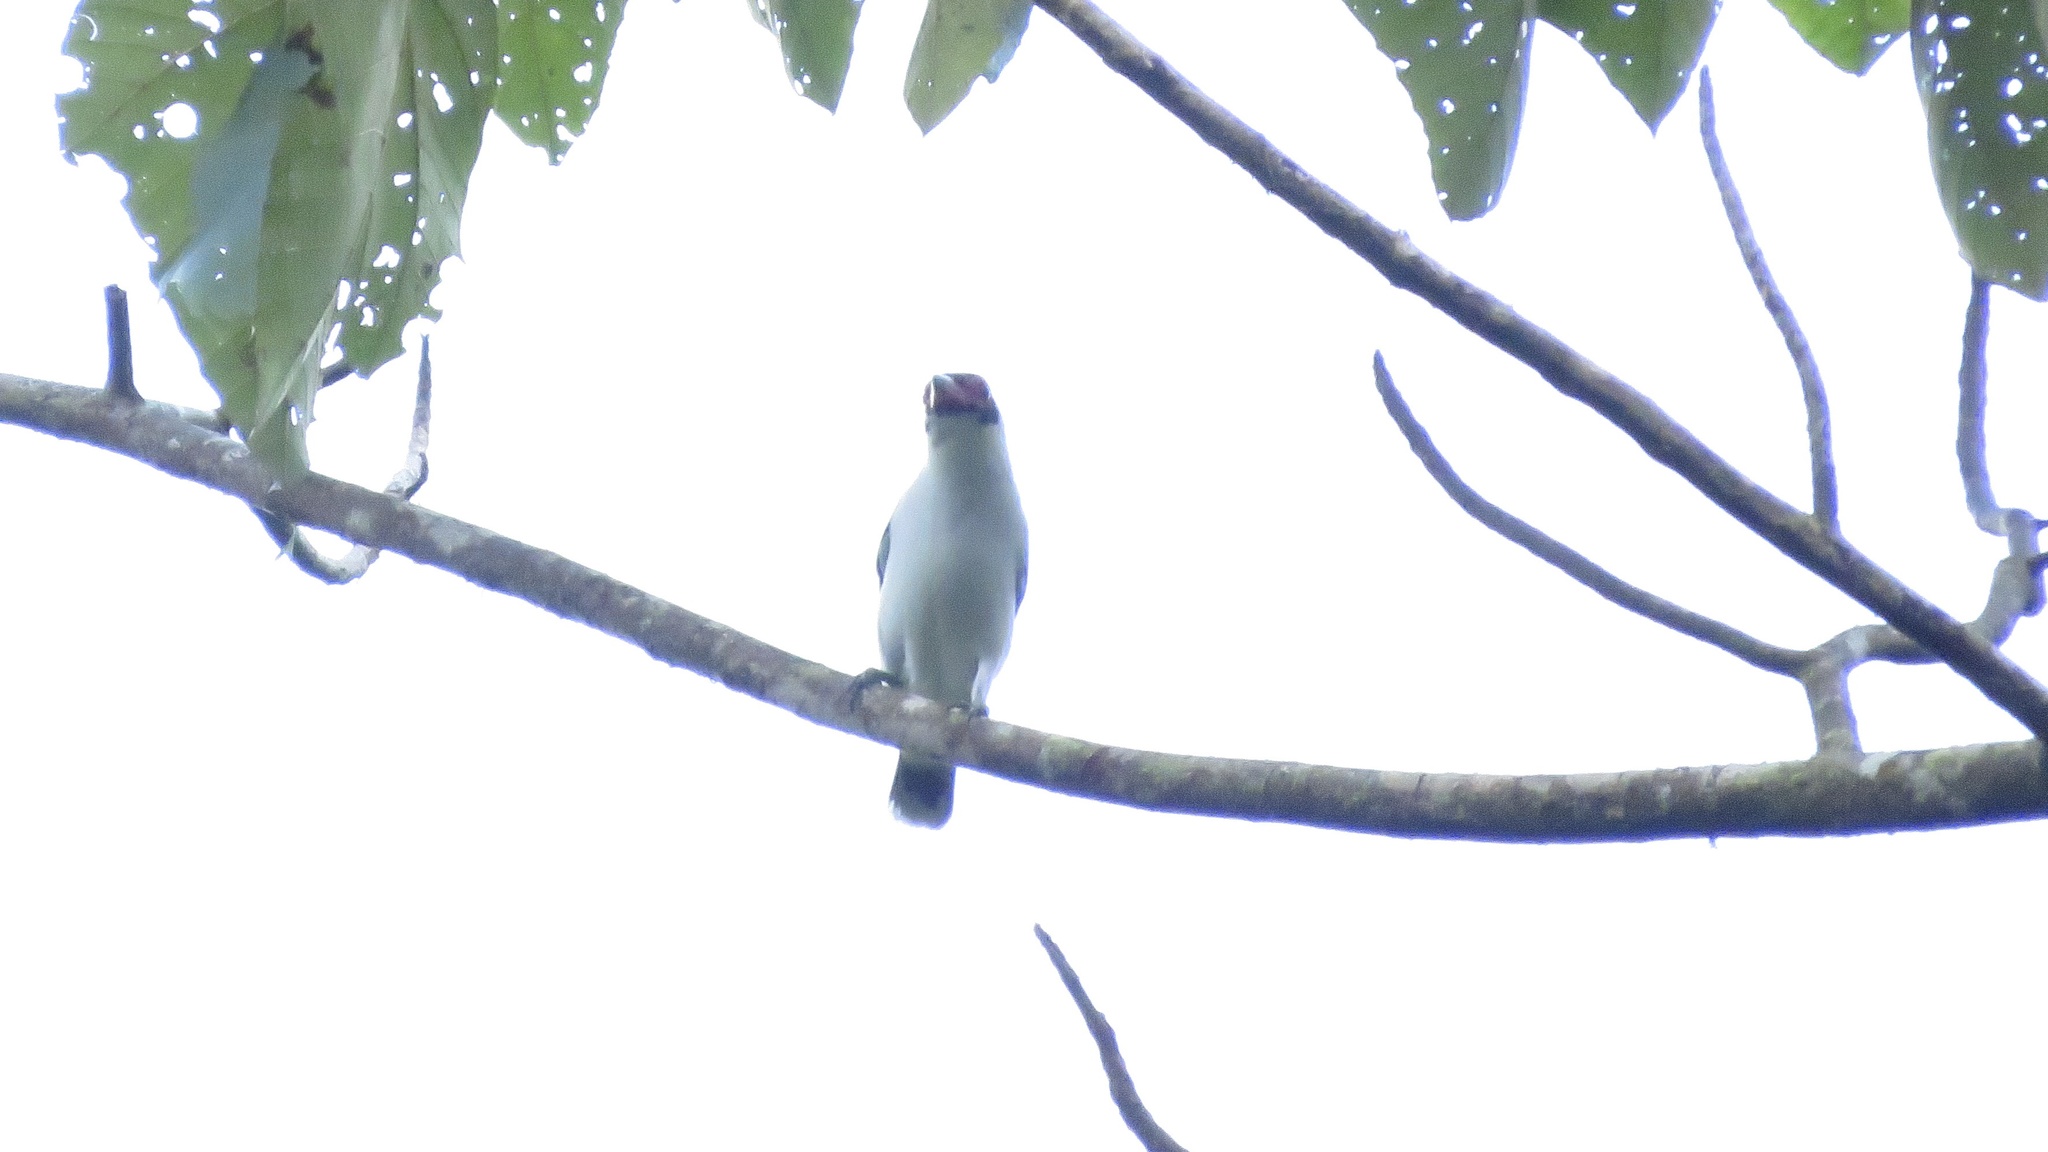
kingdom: Animalia
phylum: Chordata
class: Aves
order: Passeriformes
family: Cotingidae
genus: Tityra
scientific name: Tityra semifasciata
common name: Masked tityra
